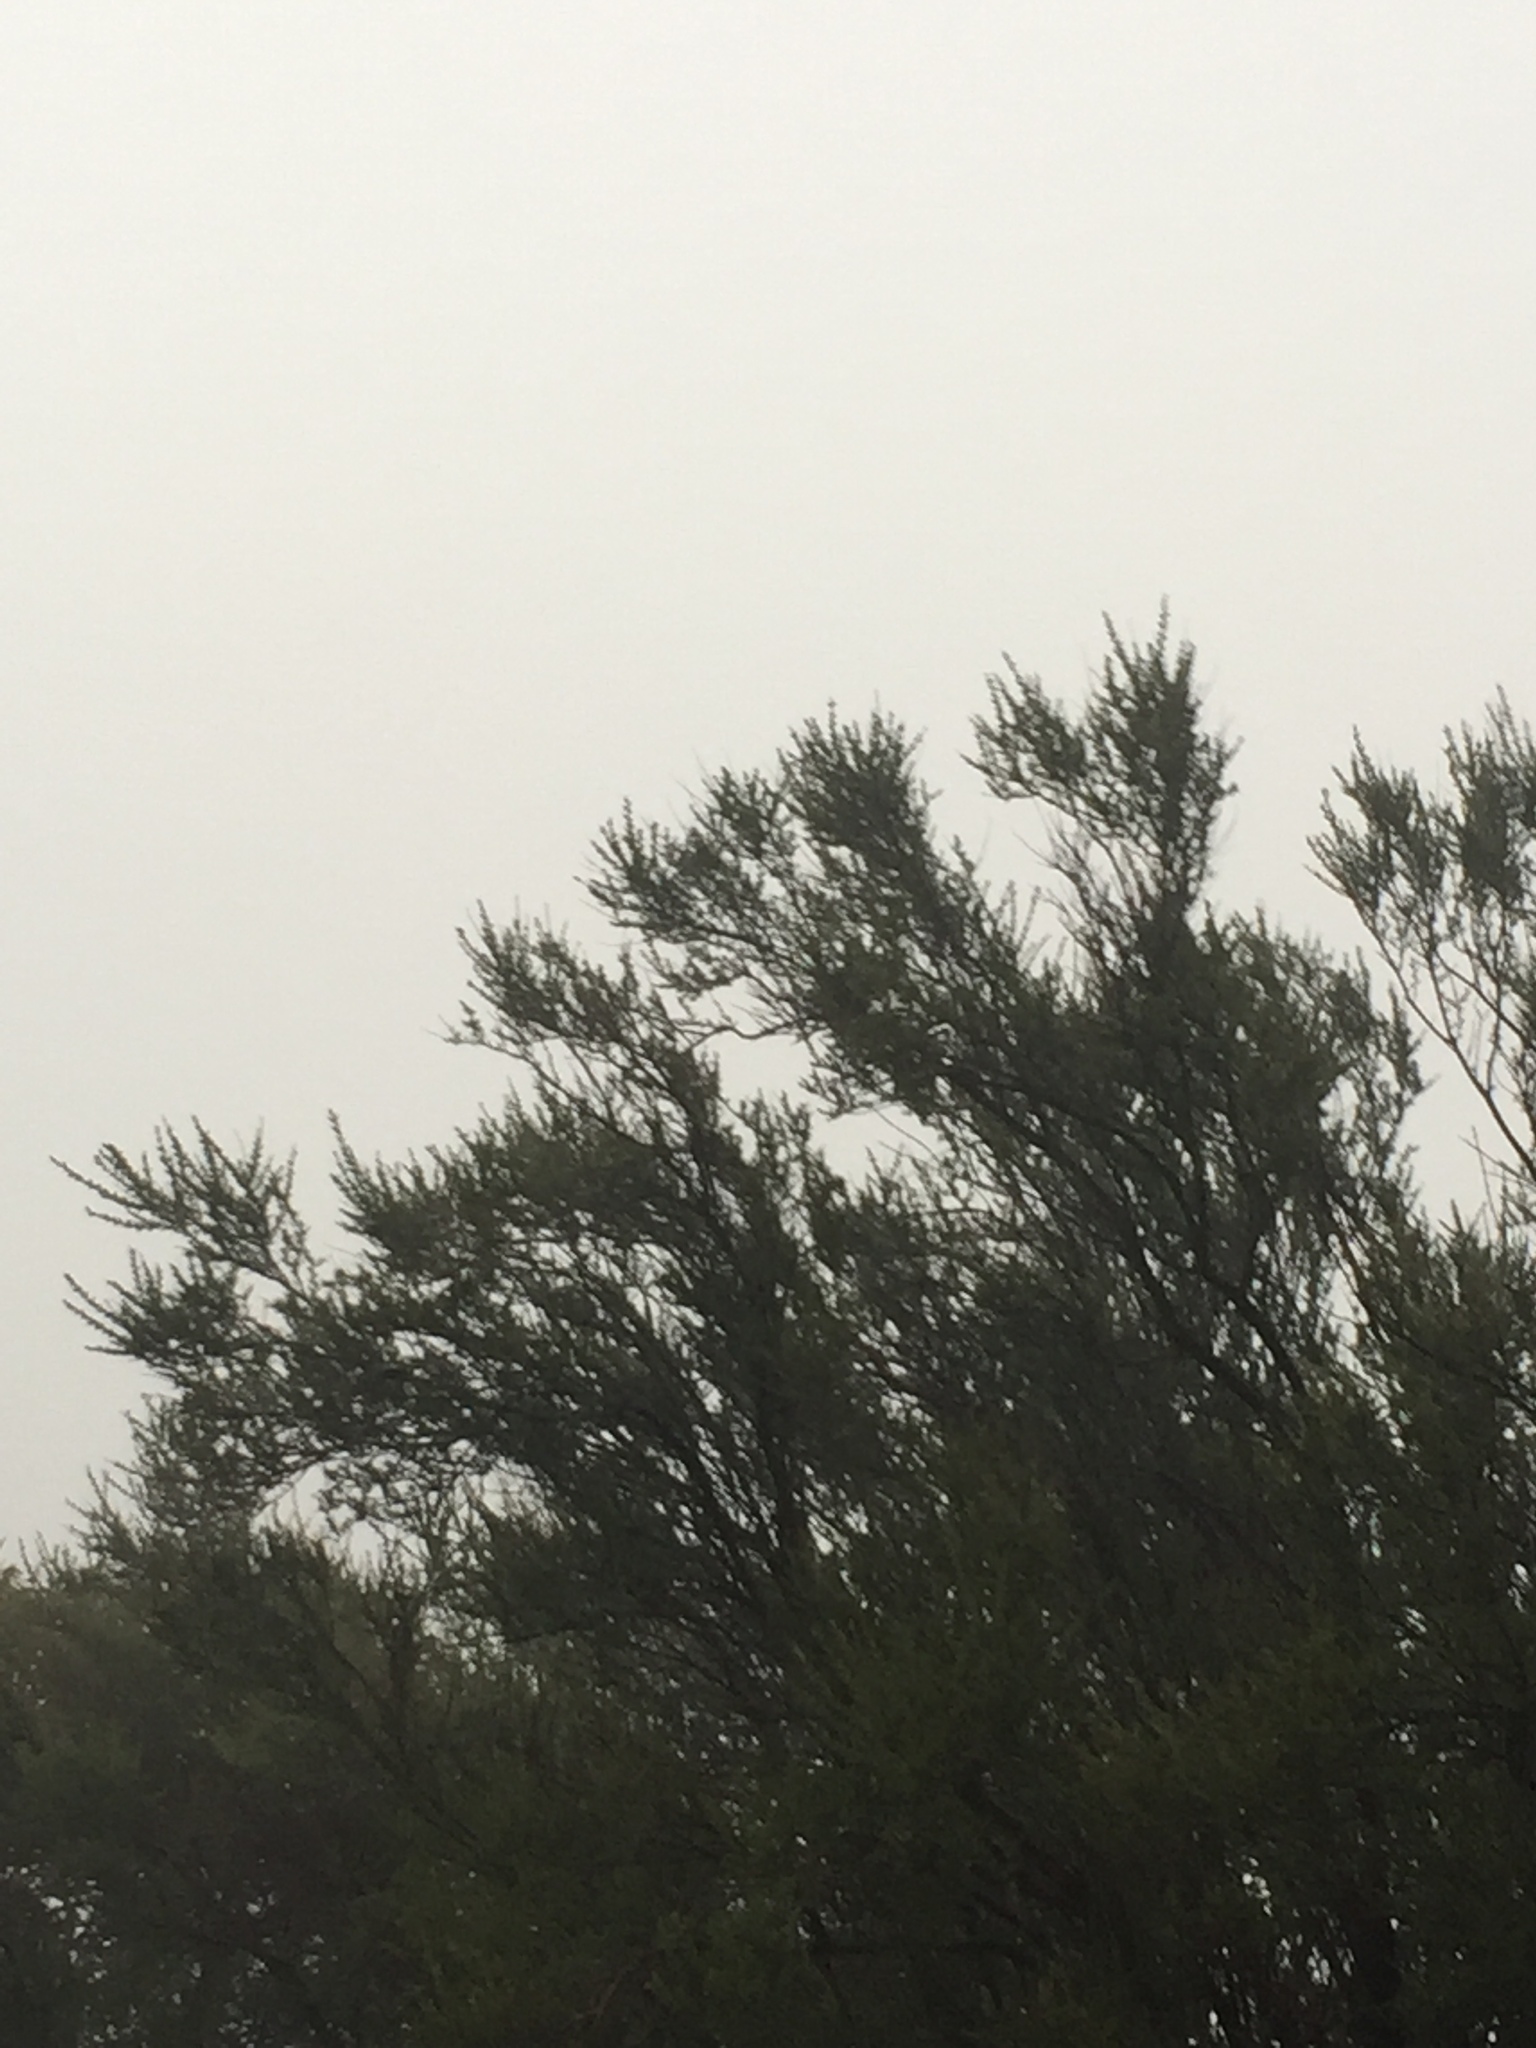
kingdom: Plantae
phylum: Tracheophyta
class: Magnoliopsida
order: Rosales
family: Rosaceae
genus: Adenostoma
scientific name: Adenostoma fasciculatum
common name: Chamise
